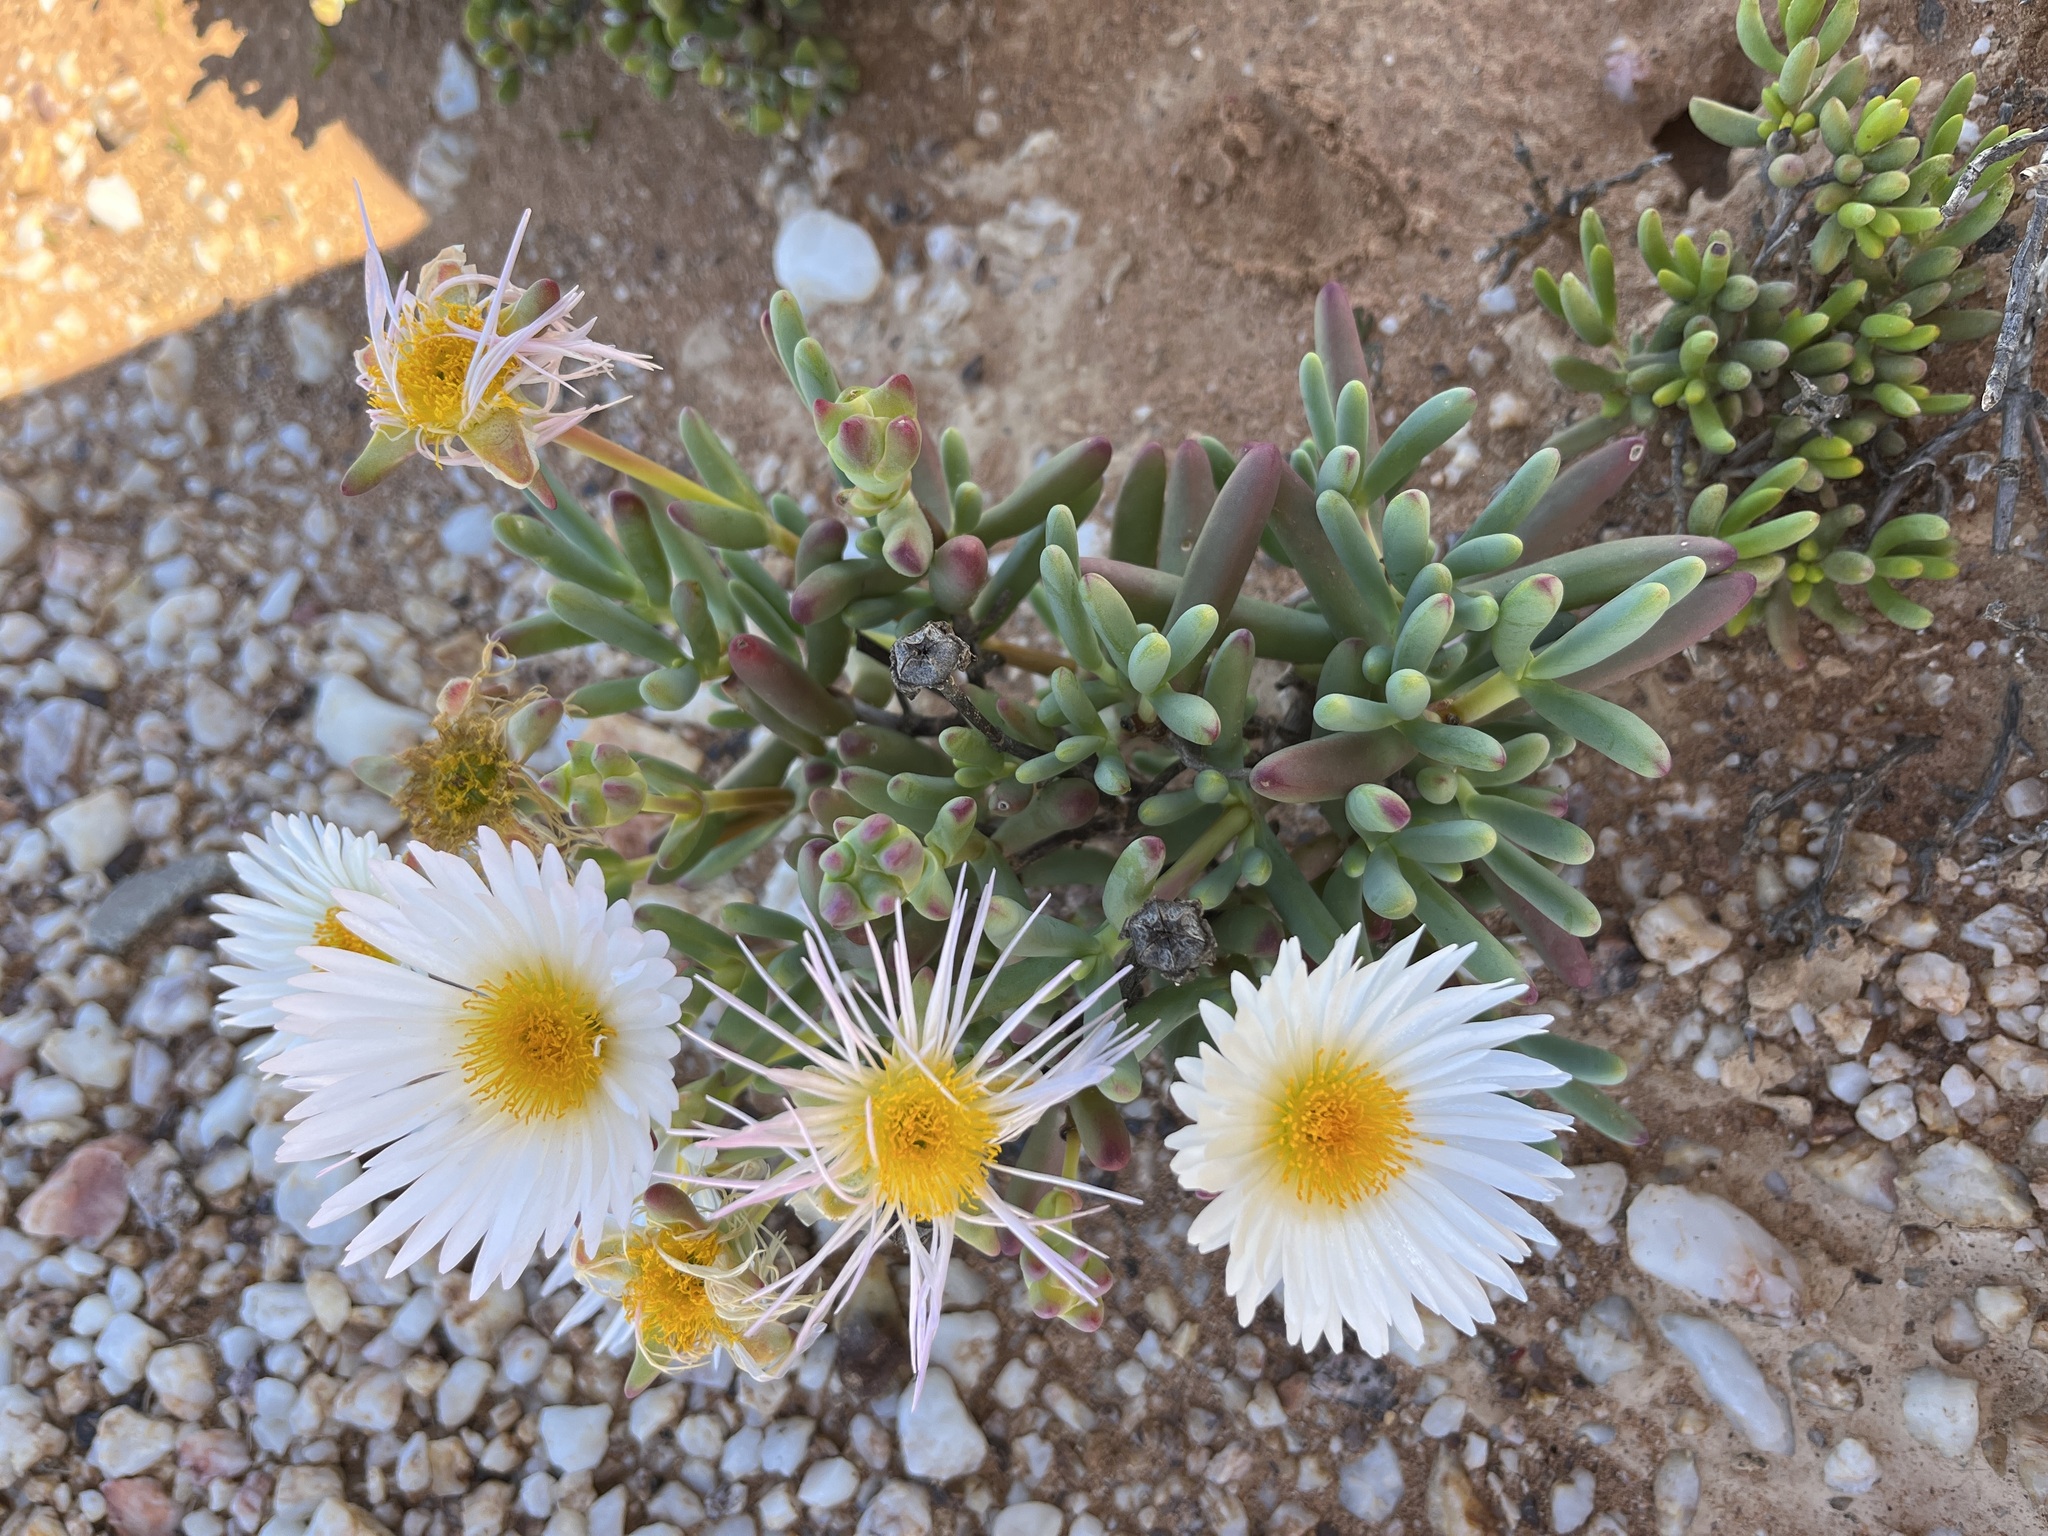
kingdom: Plantae
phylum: Tracheophyta
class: Magnoliopsida
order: Caryophyllales
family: Aizoaceae
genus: Lampranthus
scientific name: Lampranthus watermeyeri
